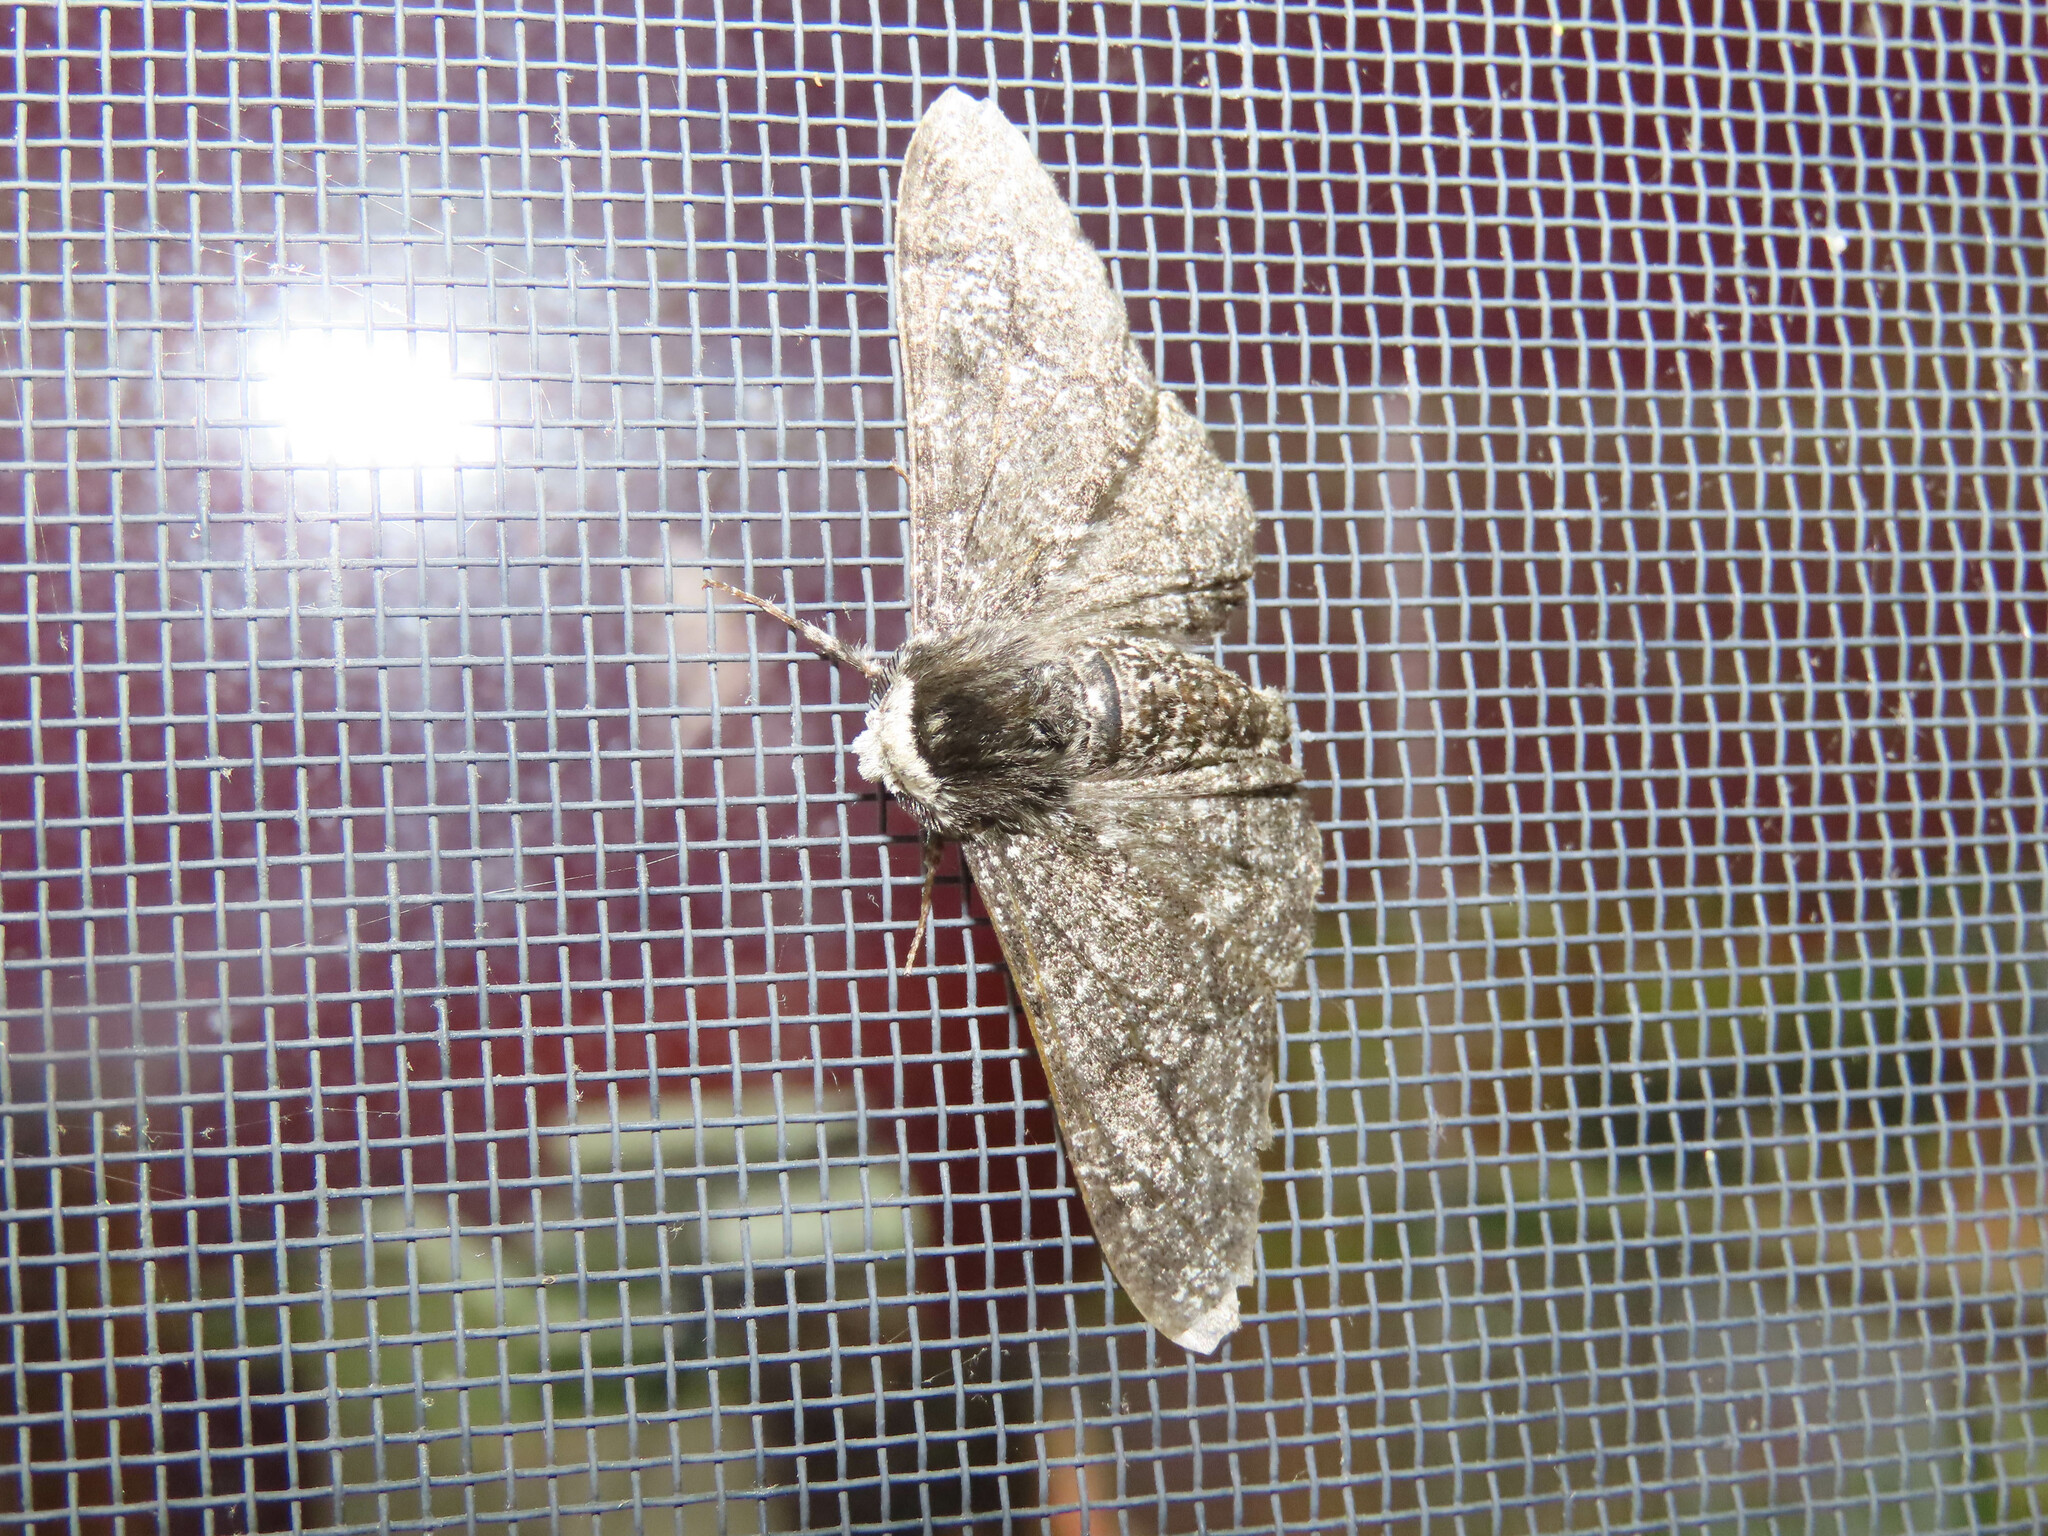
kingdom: Animalia
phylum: Arthropoda
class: Insecta
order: Lepidoptera
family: Geometridae
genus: Biston
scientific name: Biston betularia
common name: Peppered moth
